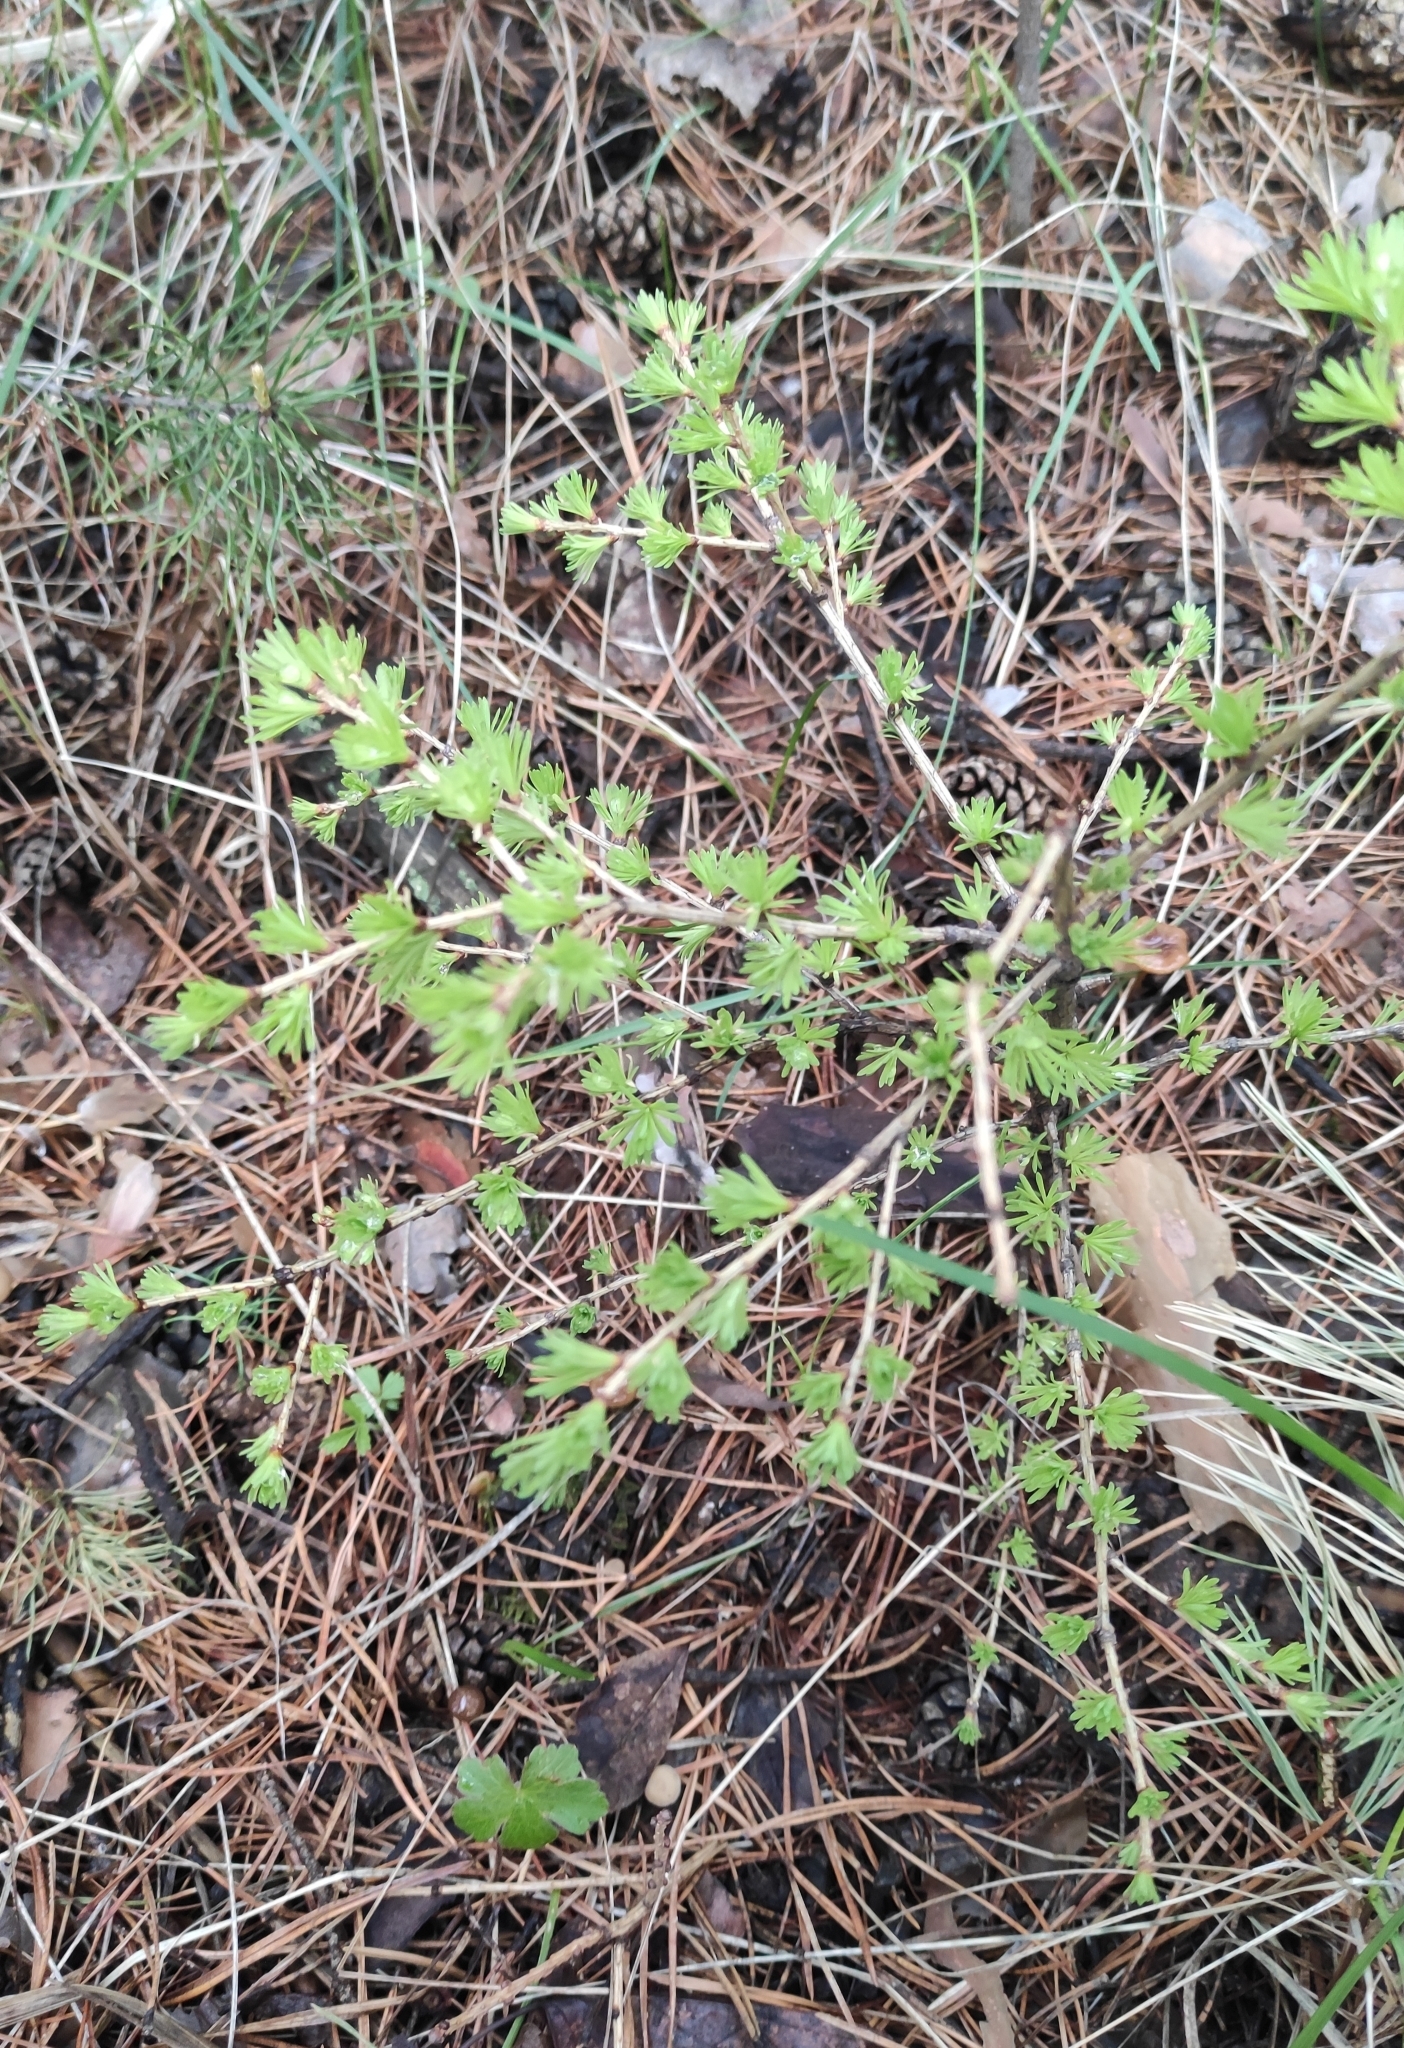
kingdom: Plantae
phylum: Tracheophyta
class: Pinopsida
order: Pinales
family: Pinaceae
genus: Larix
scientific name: Larix sibirica
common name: Siberian larch
